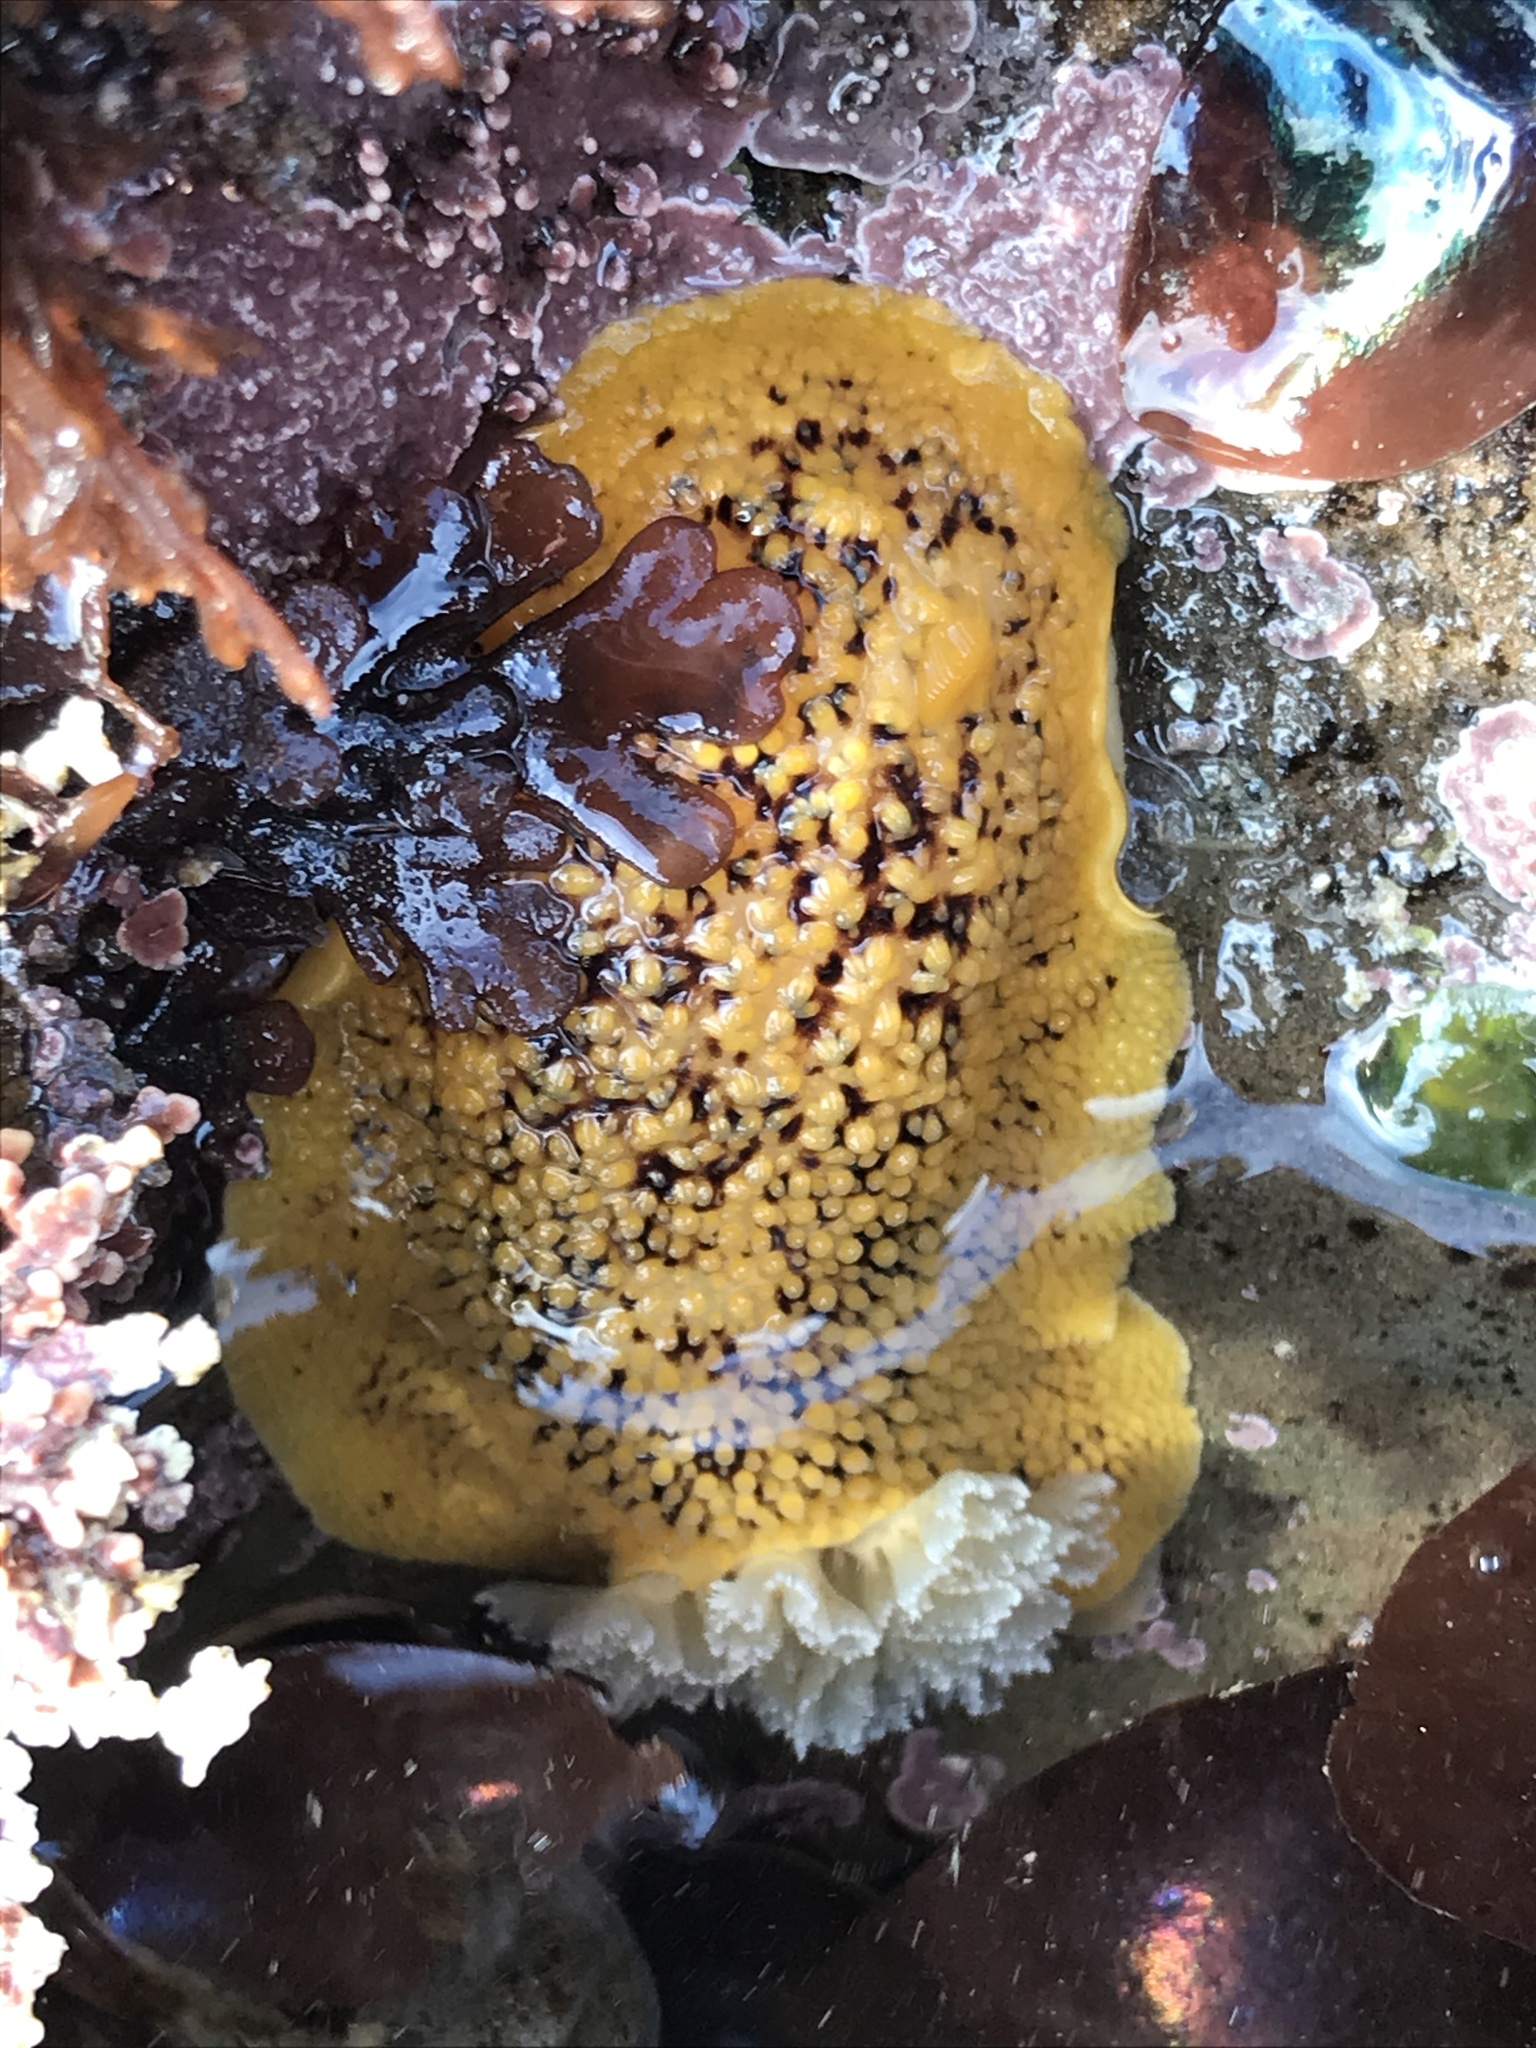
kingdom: Animalia
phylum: Mollusca
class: Gastropoda
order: Nudibranchia
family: Discodorididae
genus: Peltodoris
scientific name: Peltodoris nobilis
